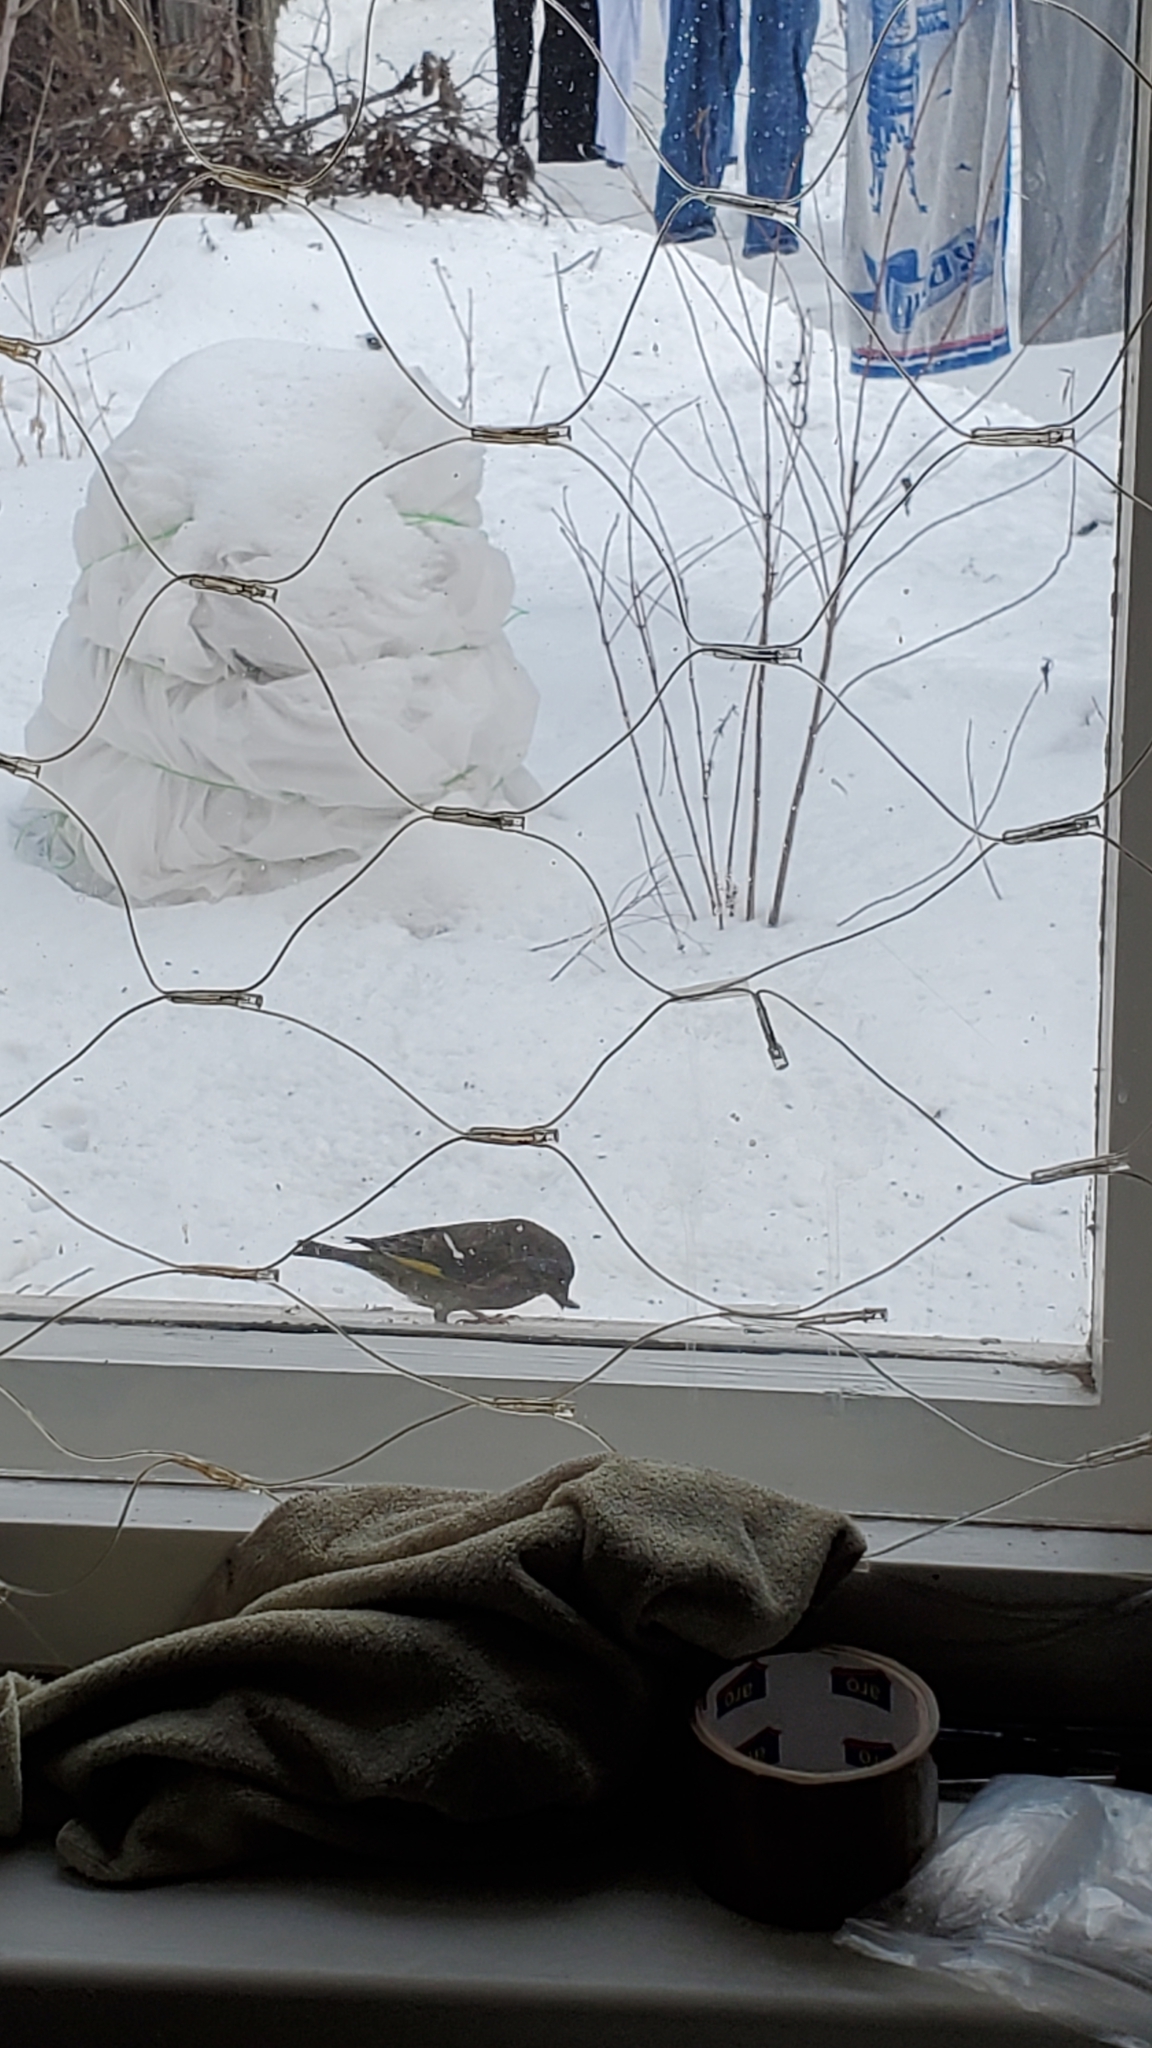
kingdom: Plantae
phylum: Tracheophyta
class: Liliopsida
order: Poales
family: Poaceae
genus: Chloris
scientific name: Chloris chloris
